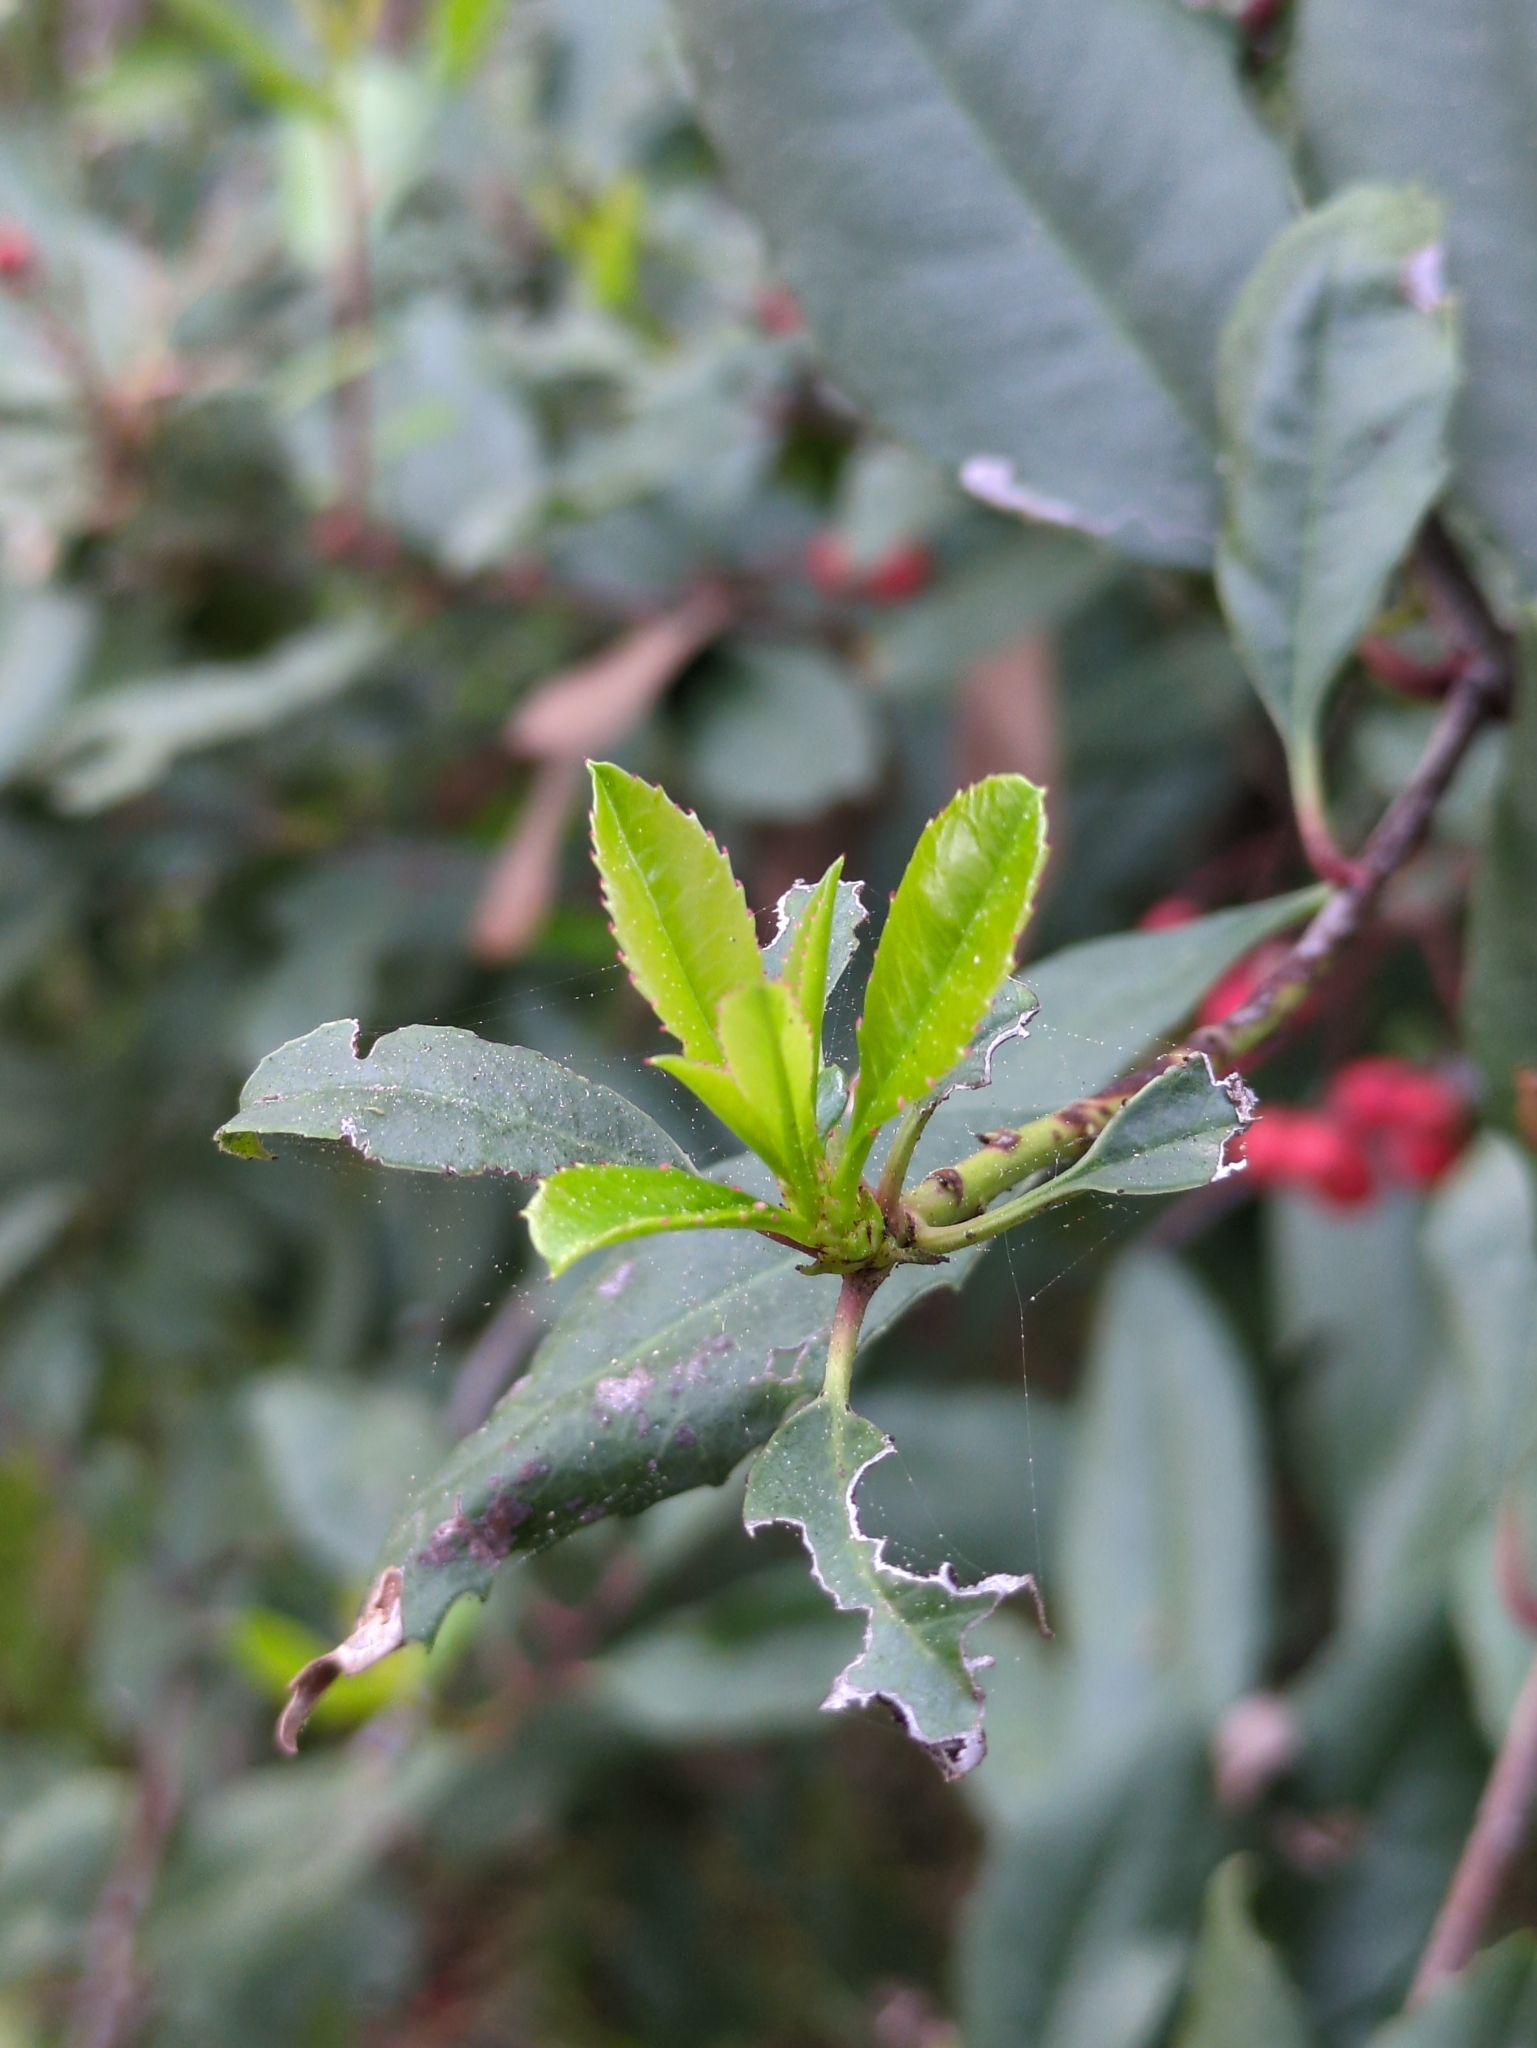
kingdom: Plantae
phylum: Tracheophyta
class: Magnoliopsida
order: Rosales
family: Rosaceae
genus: Heteromeles
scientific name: Heteromeles arbutifolia
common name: California-holly
